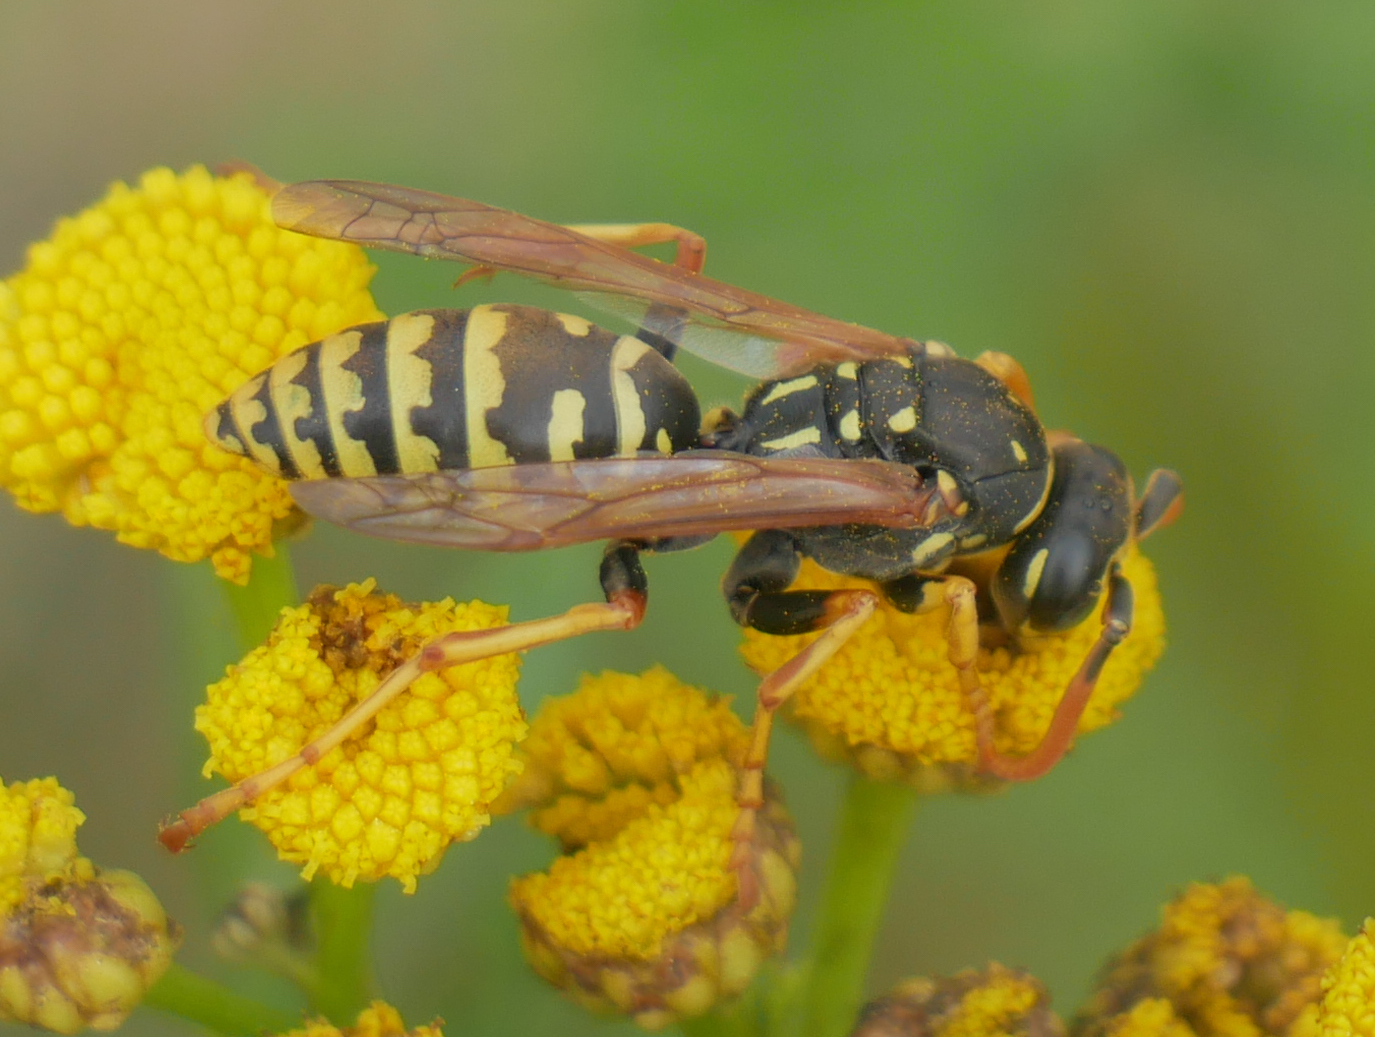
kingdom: Animalia
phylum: Arthropoda
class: Insecta
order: Hymenoptera
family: Eumenidae
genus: Polistes
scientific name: Polistes dominula
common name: Paper wasp
